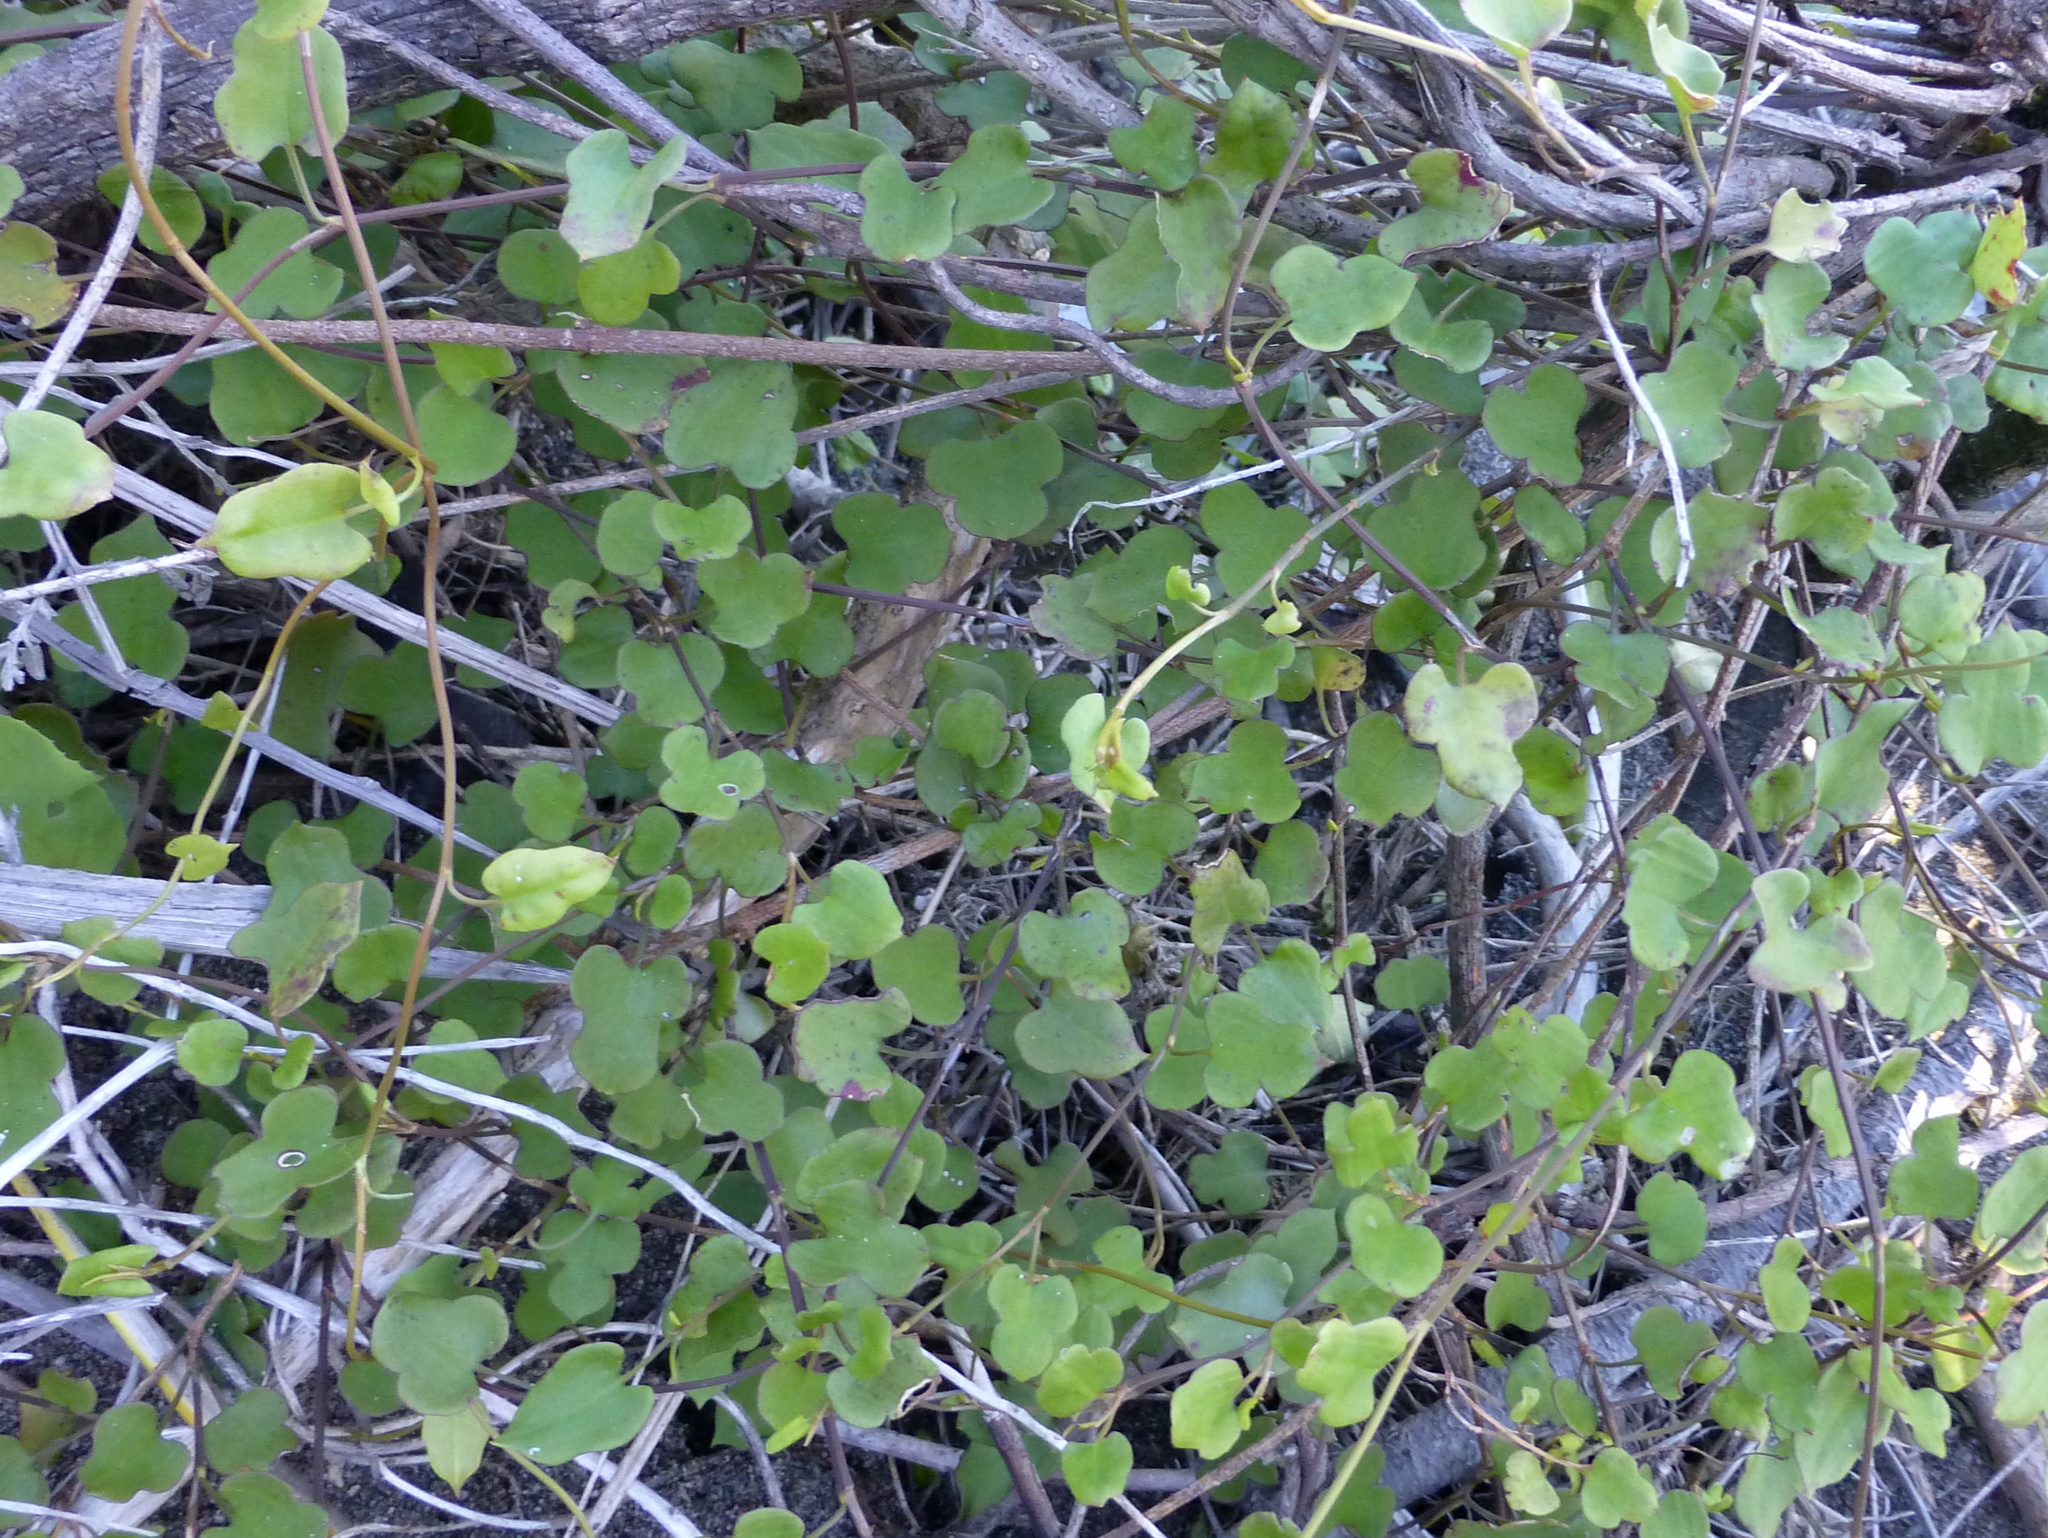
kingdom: Plantae
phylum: Tracheophyta
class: Magnoliopsida
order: Caryophyllales
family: Polygonaceae
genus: Muehlenbeckia
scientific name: Muehlenbeckia australis
